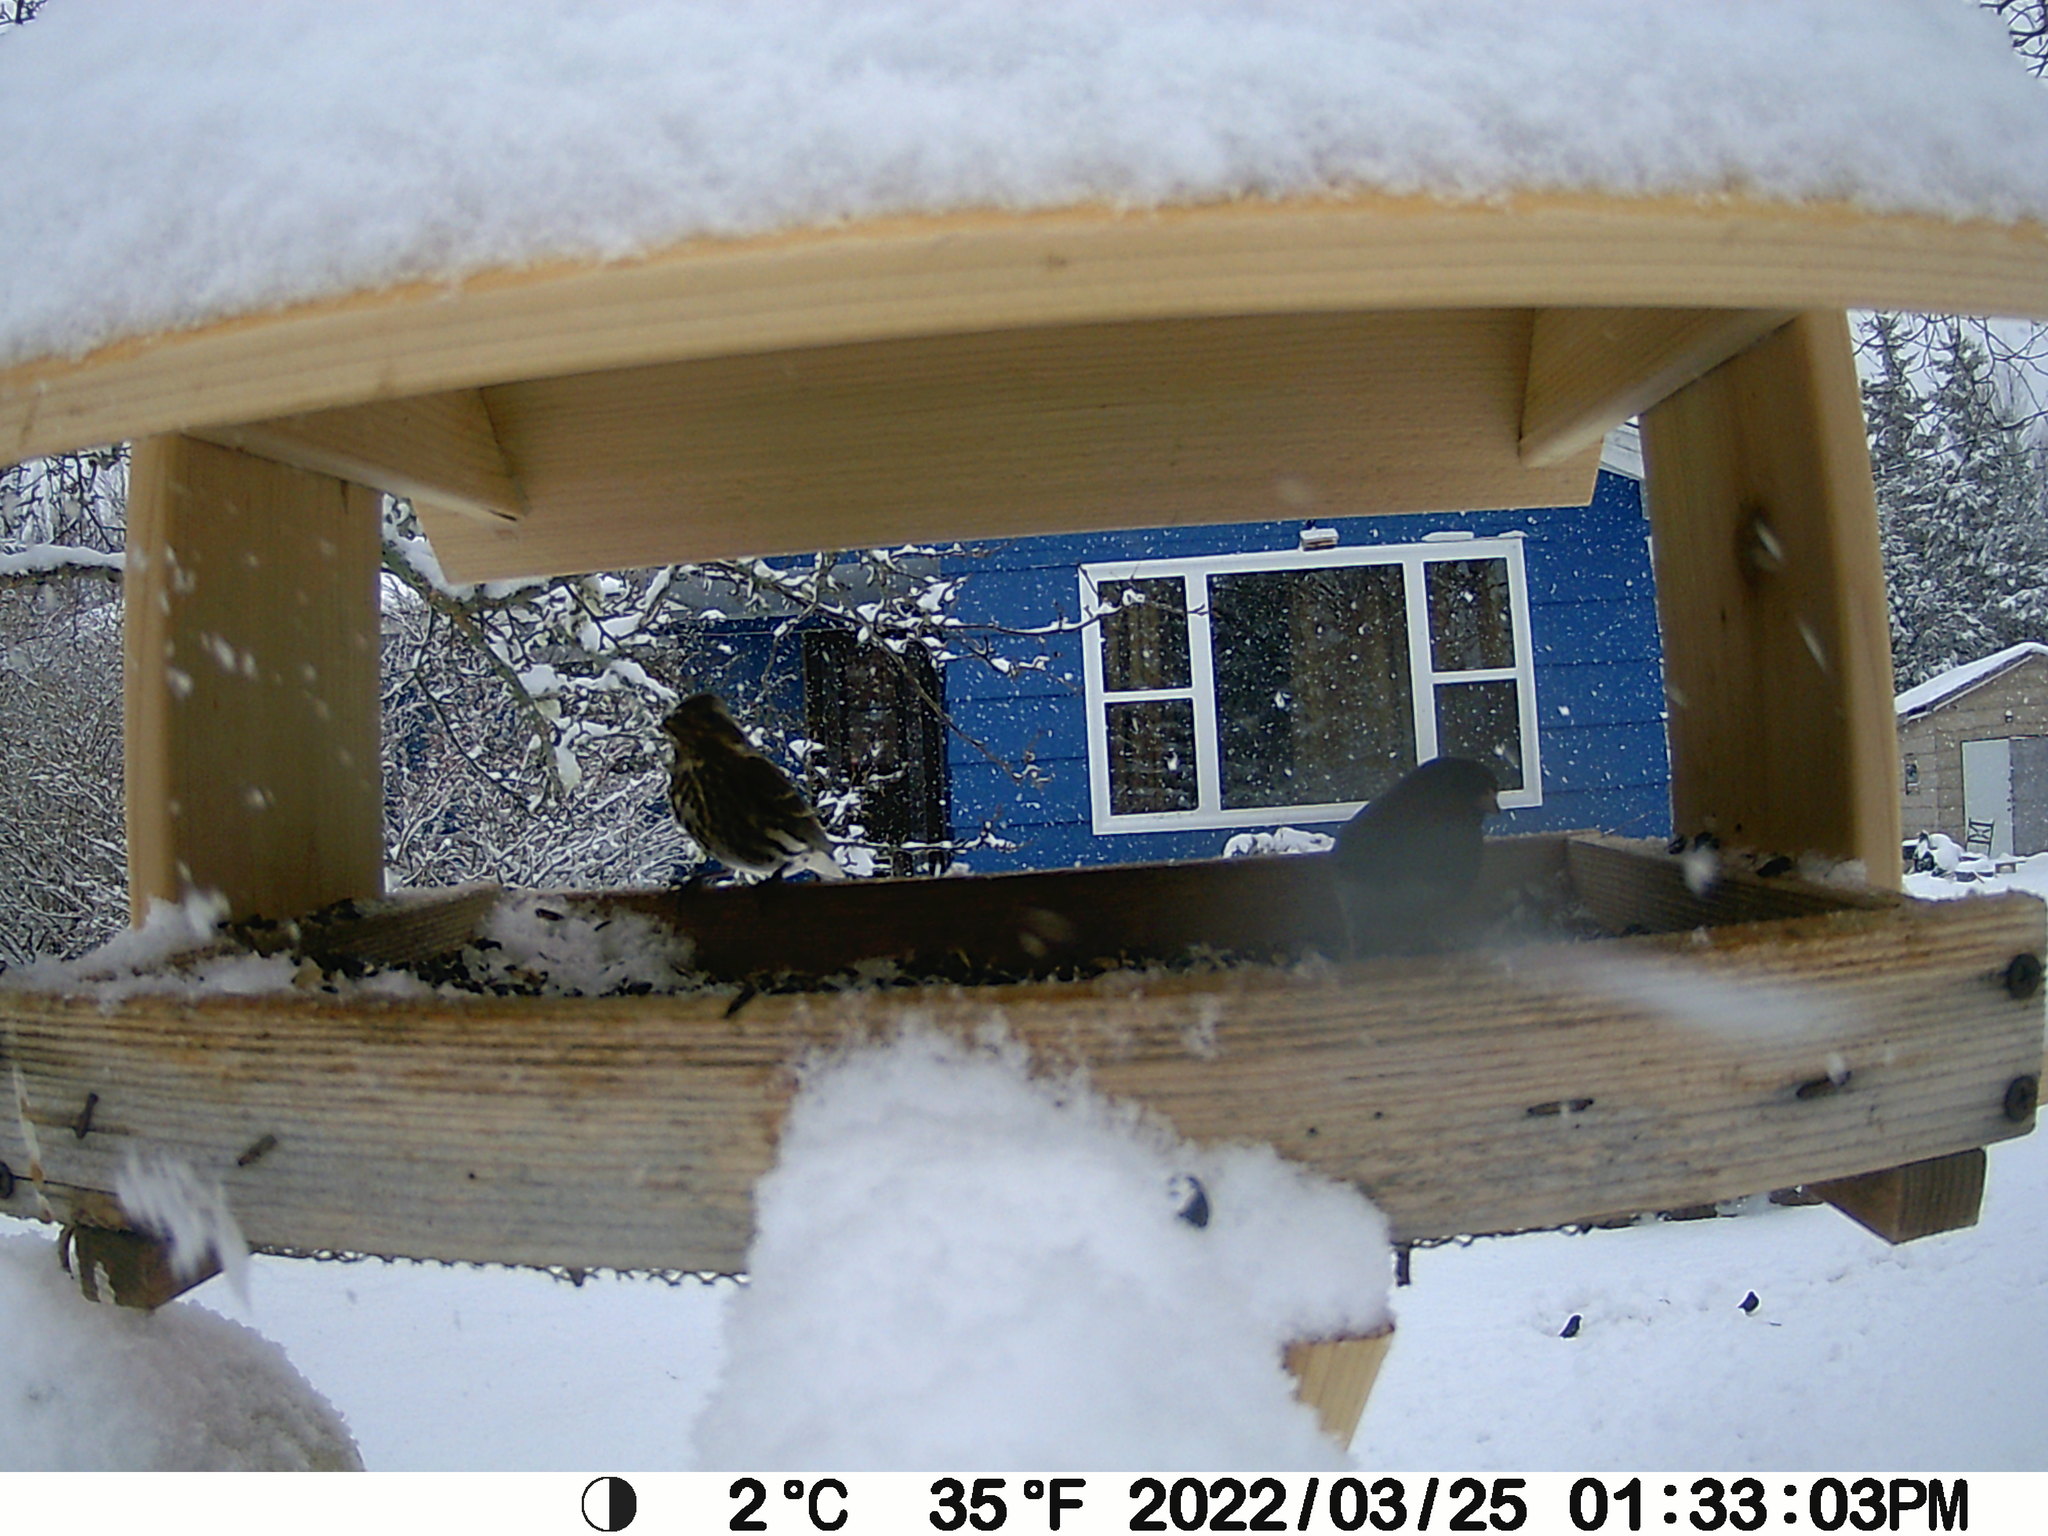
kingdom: Animalia
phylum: Chordata
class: Aves
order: Passeriformes
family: Fringillidae
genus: Haemorhous
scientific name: Haemorhous purpureus
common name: Purple finch
